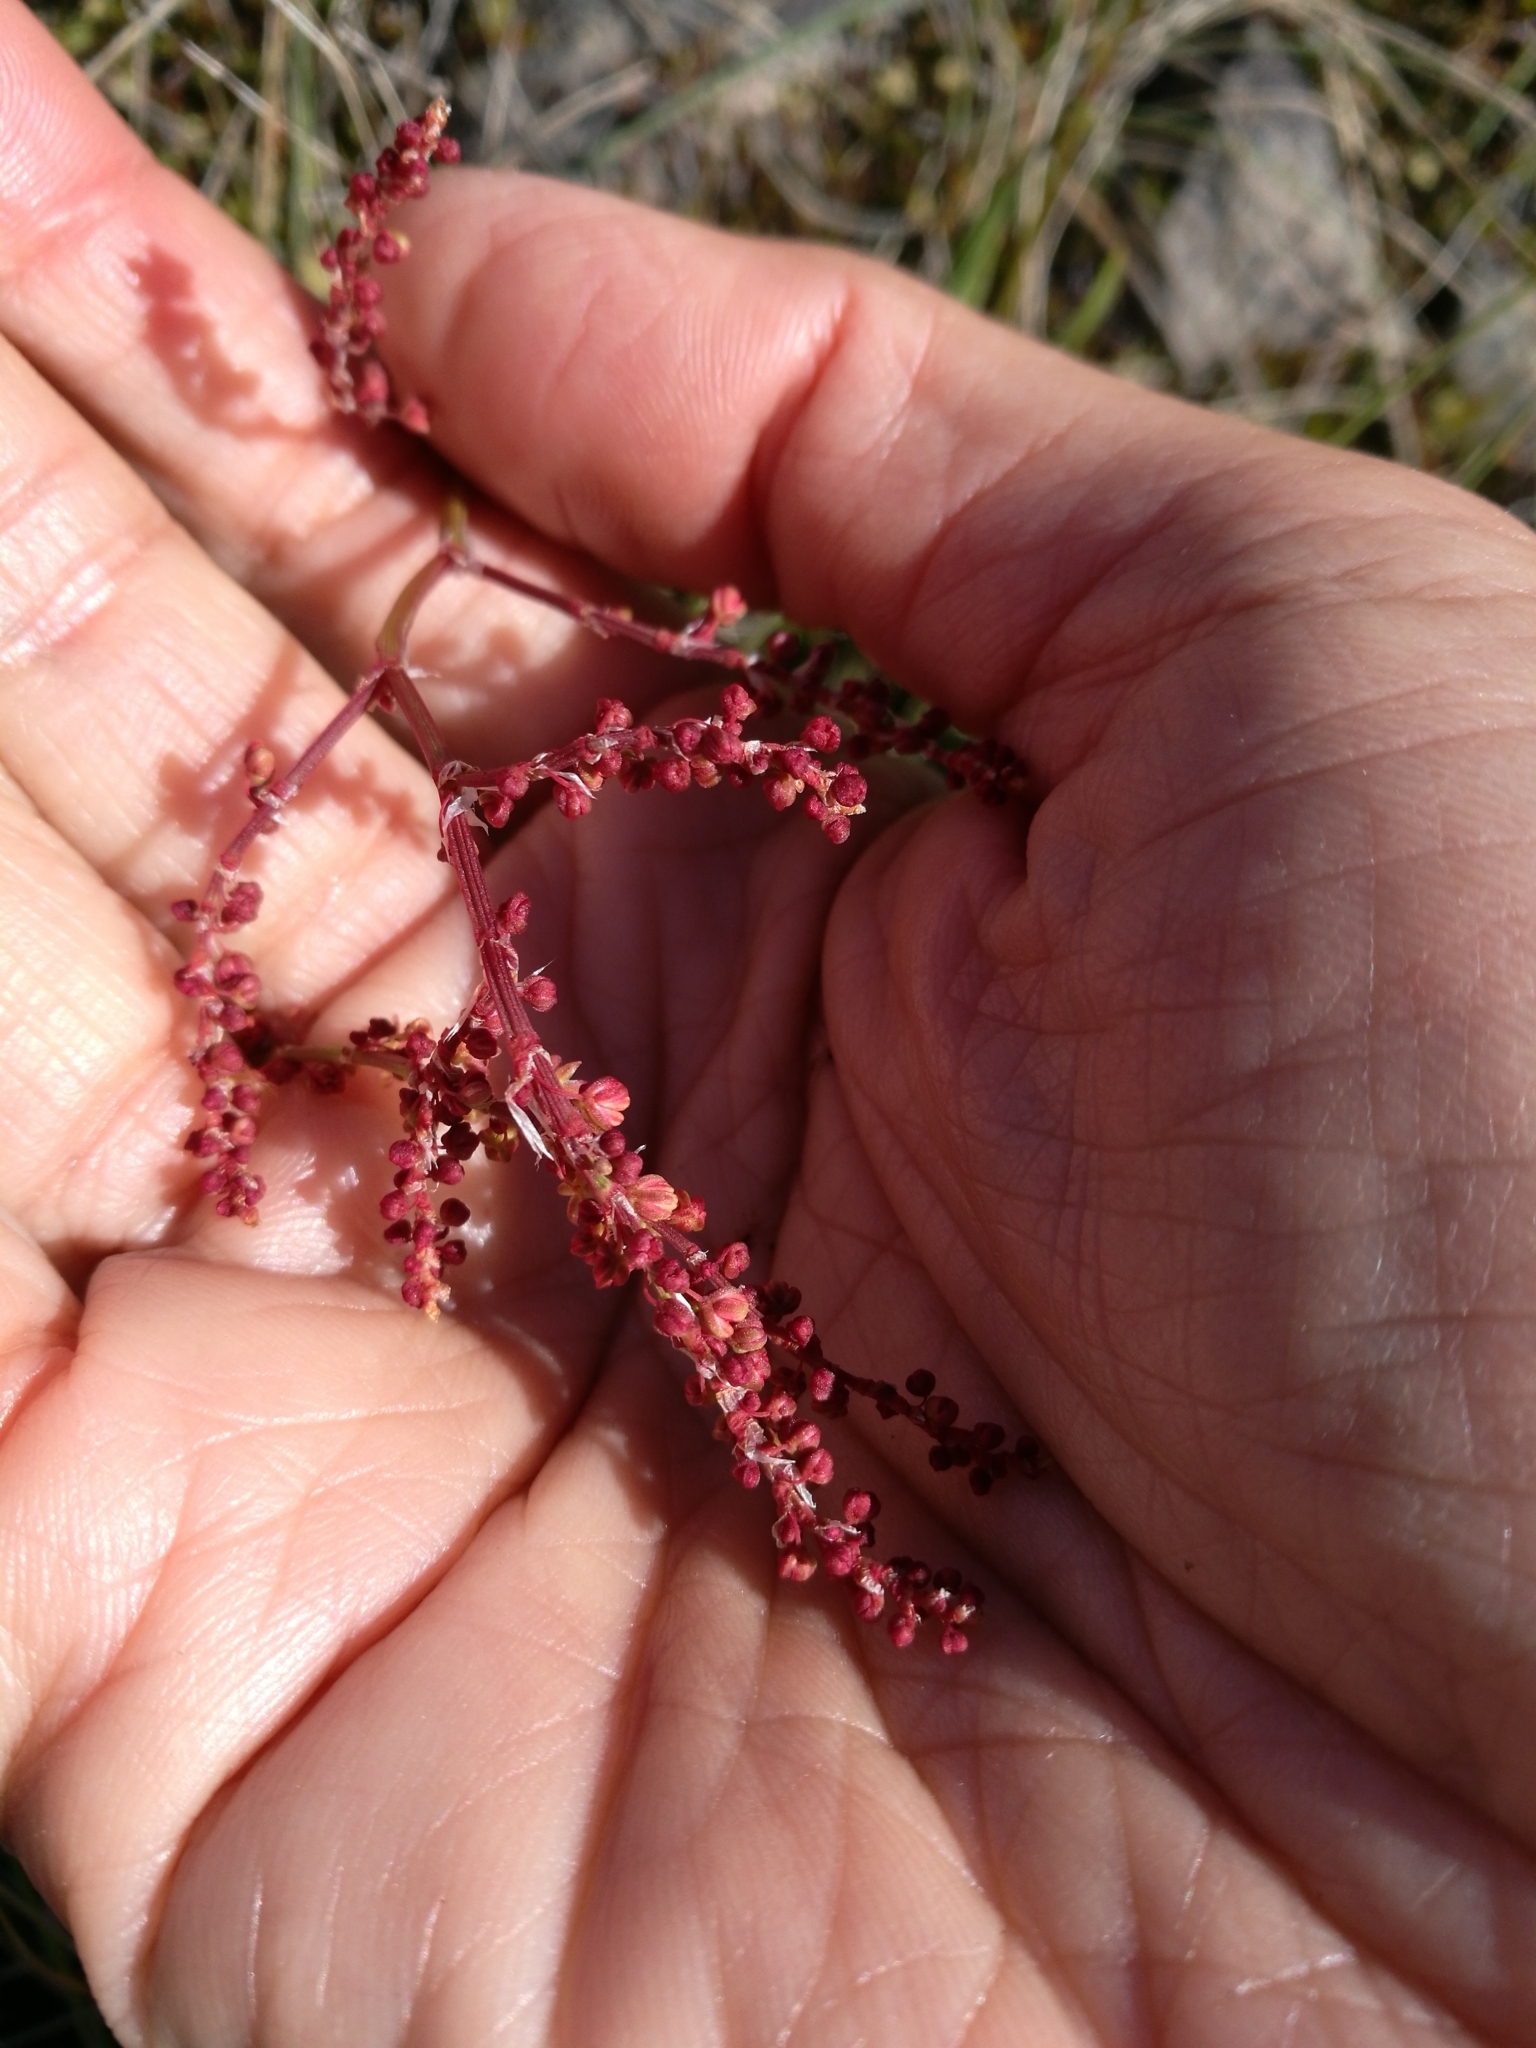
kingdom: Plantae
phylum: Tracheophyta
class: Magnoliopsida
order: Caryophyllales
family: Polygonaceae
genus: Rumex
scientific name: Rumex acetosella
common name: Common sheep sorrel
